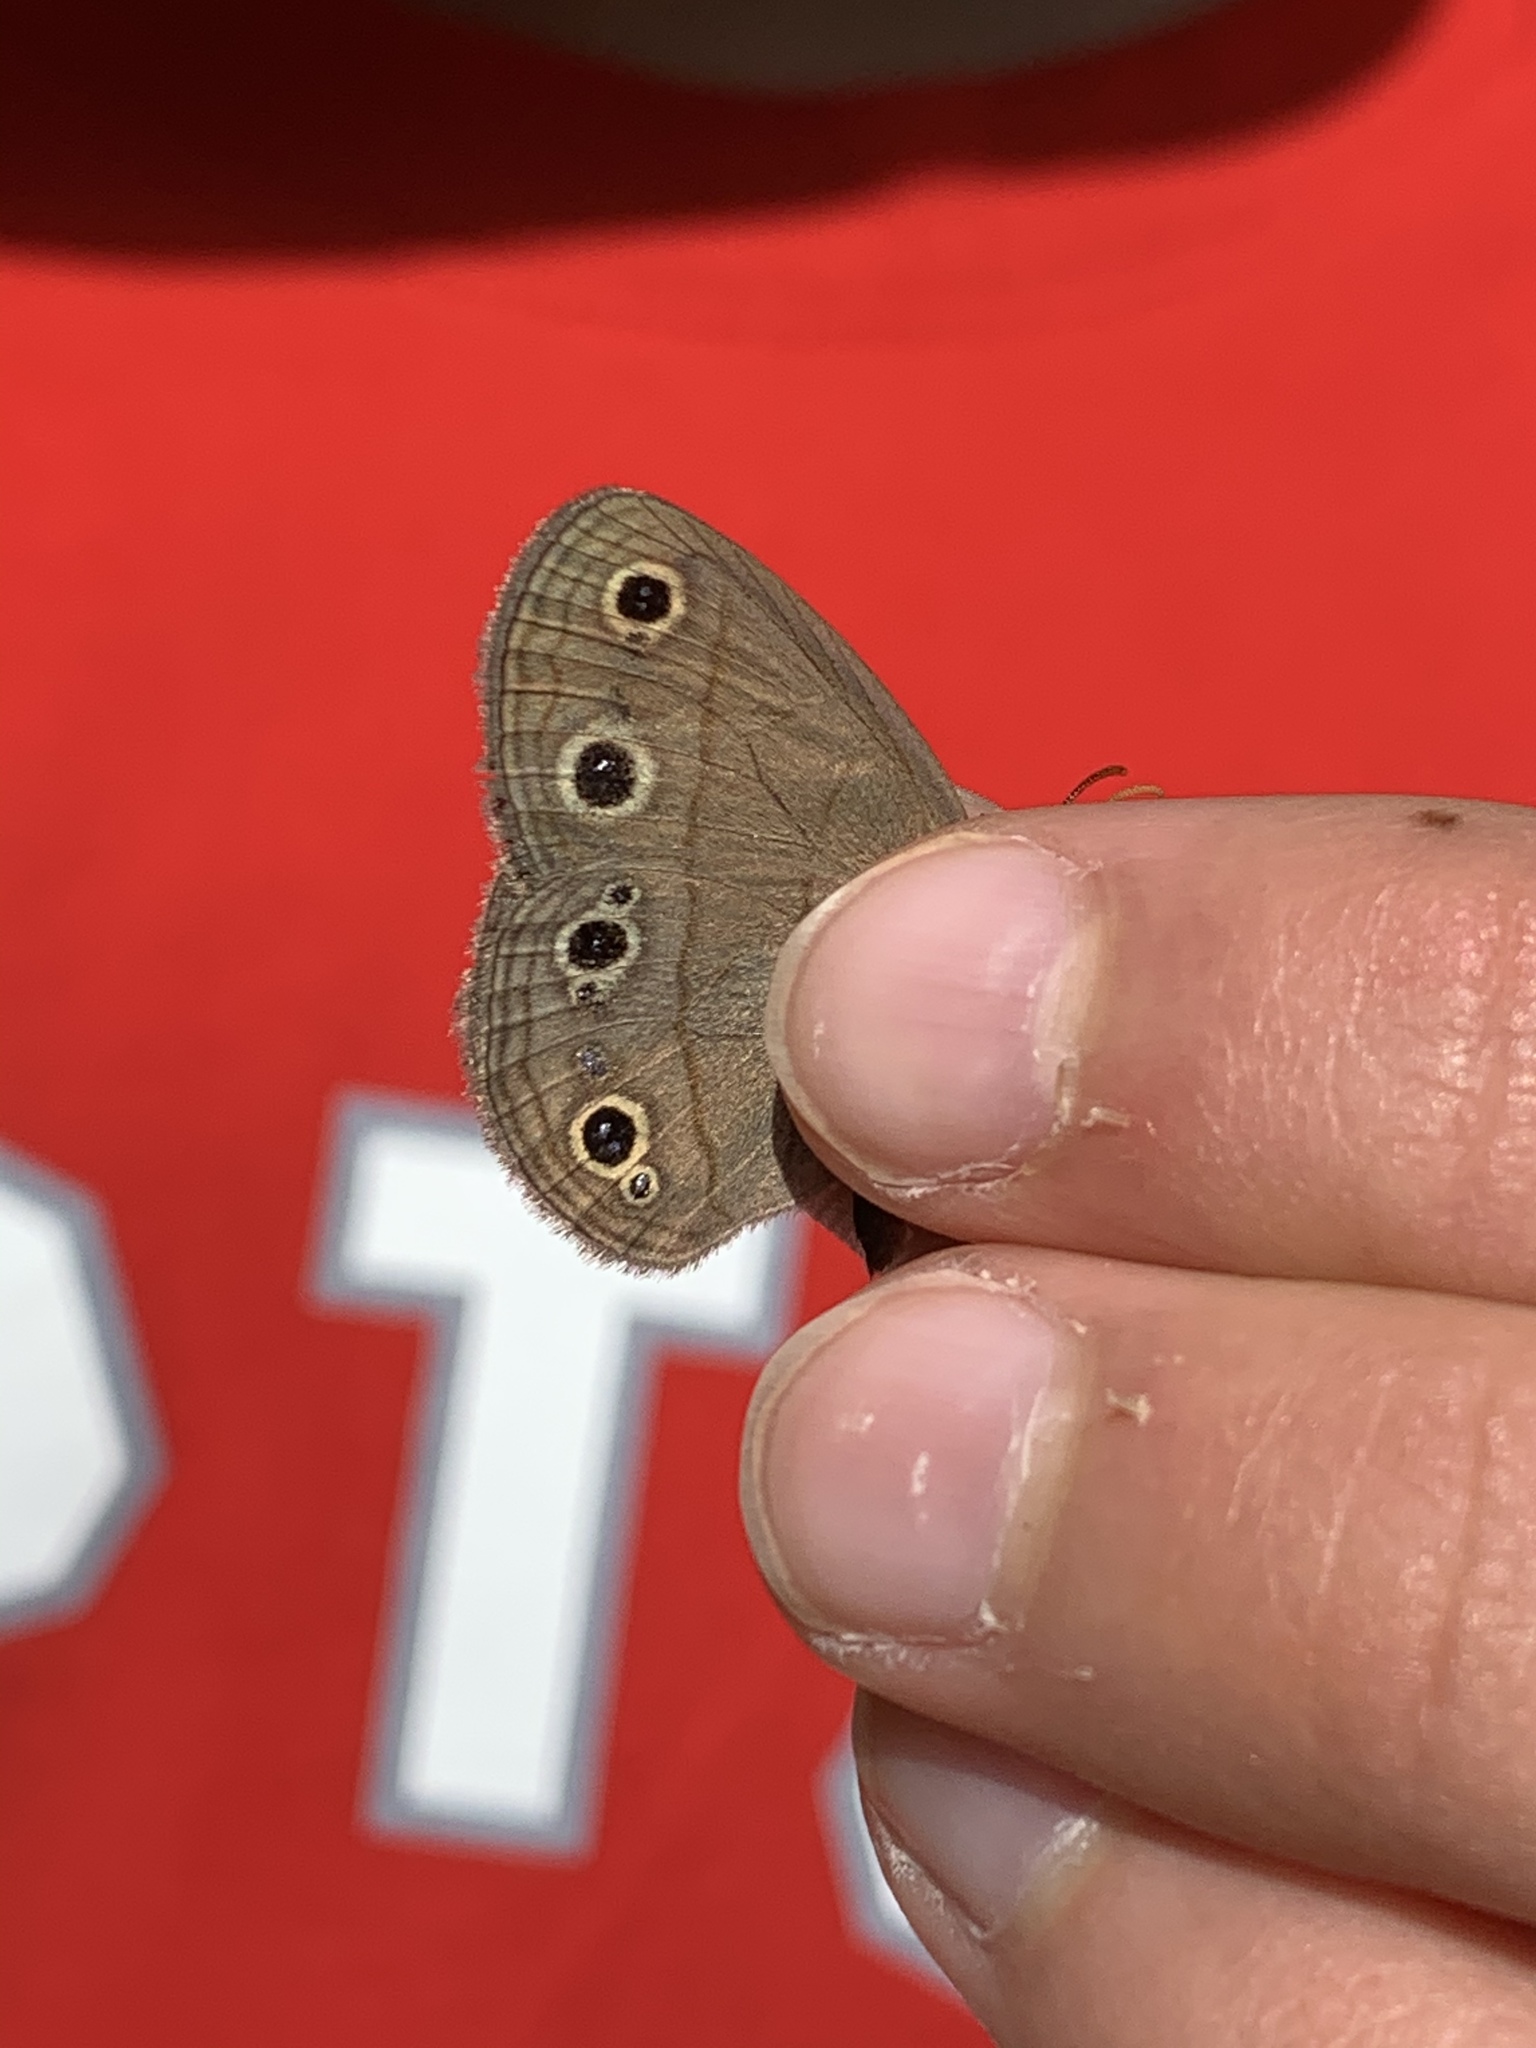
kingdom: Animalia
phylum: Arthropoda
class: Insecta
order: Lepidoptera
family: Nymphalidae
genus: Euptychia
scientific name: Euptychia cymela
